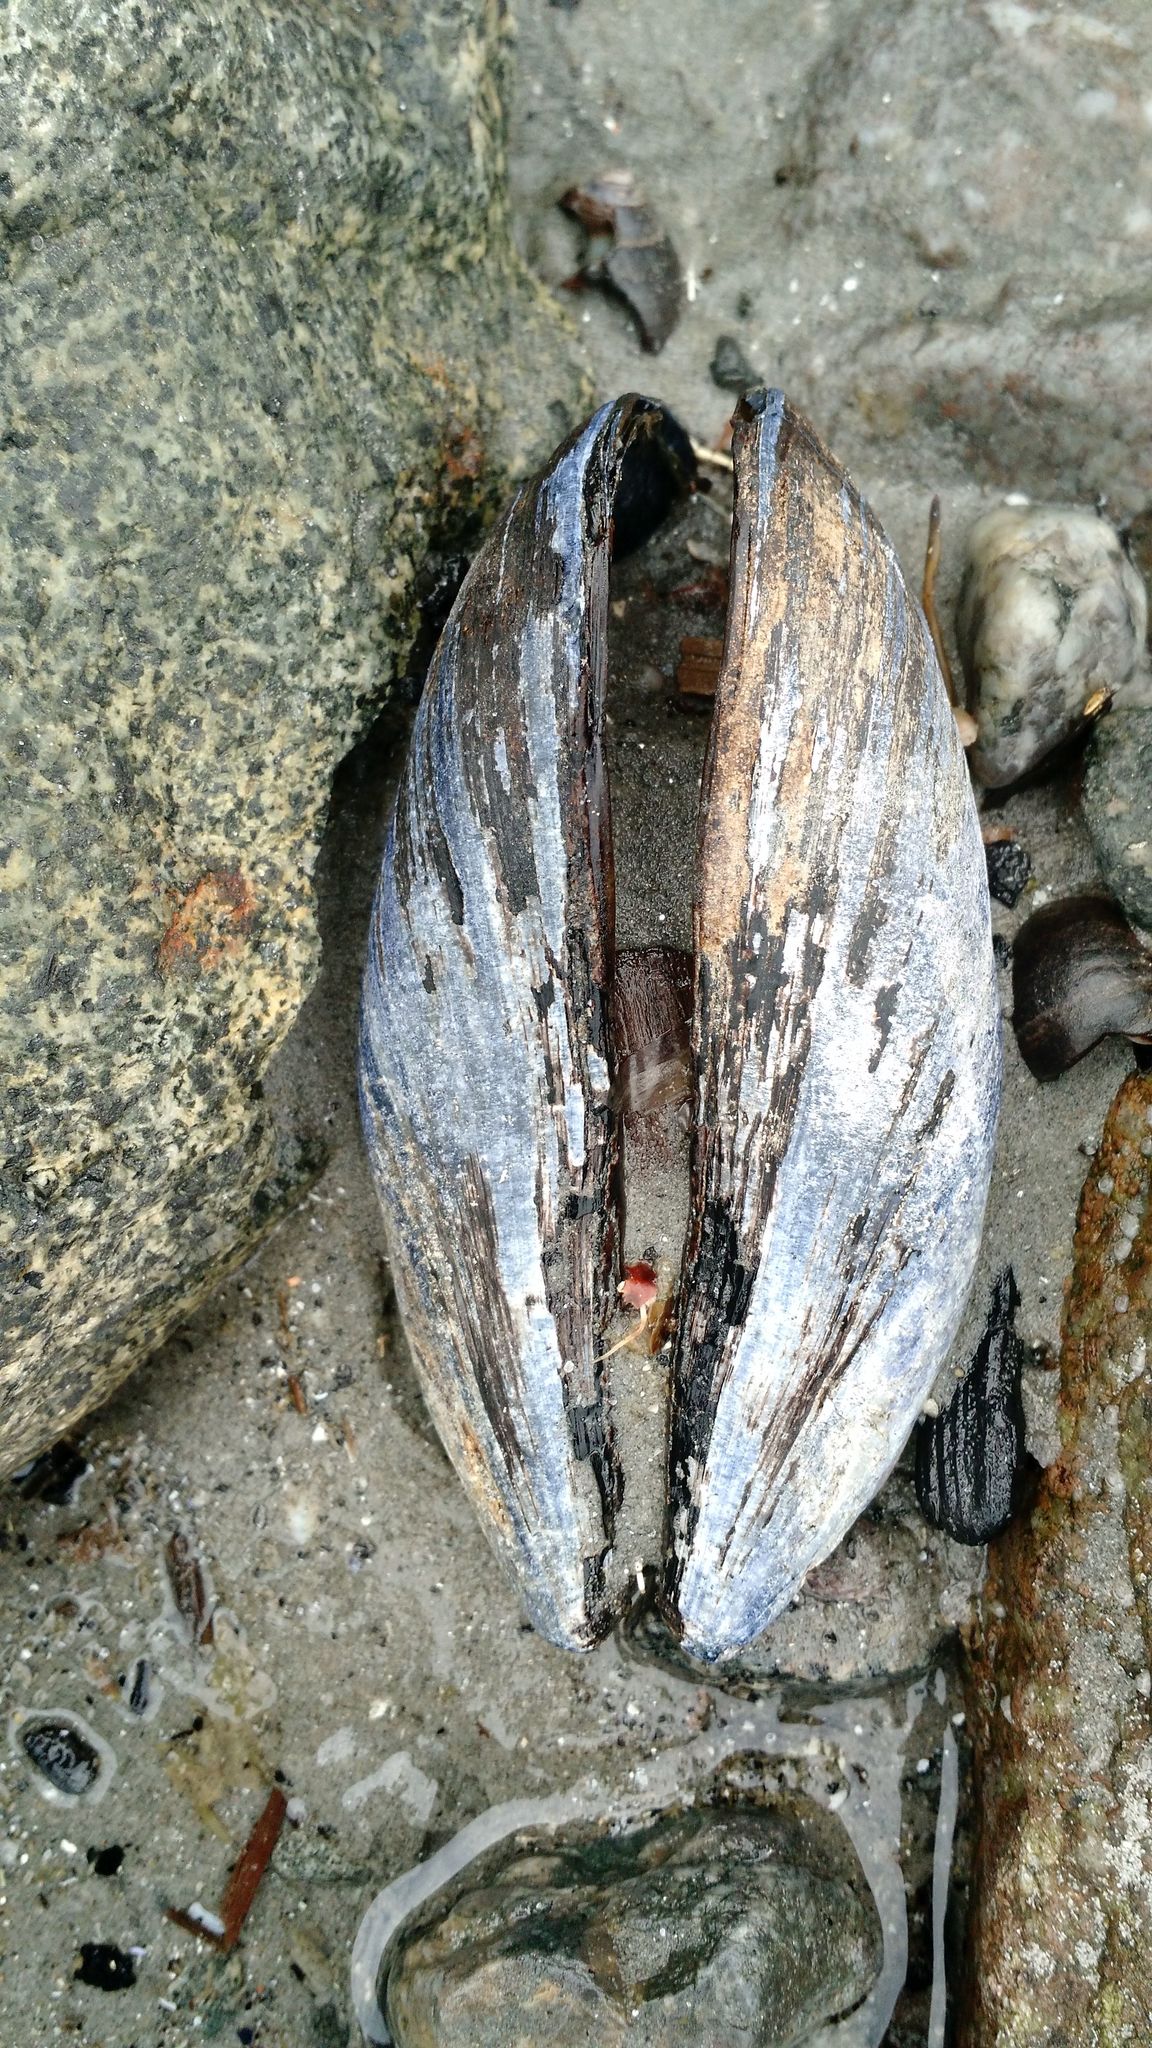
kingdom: Animalia
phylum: Mollusca
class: Bivalvia
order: Mytilida
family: Mytilidae
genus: Mytilus
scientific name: Mytilus edulis
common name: Blue mussel
